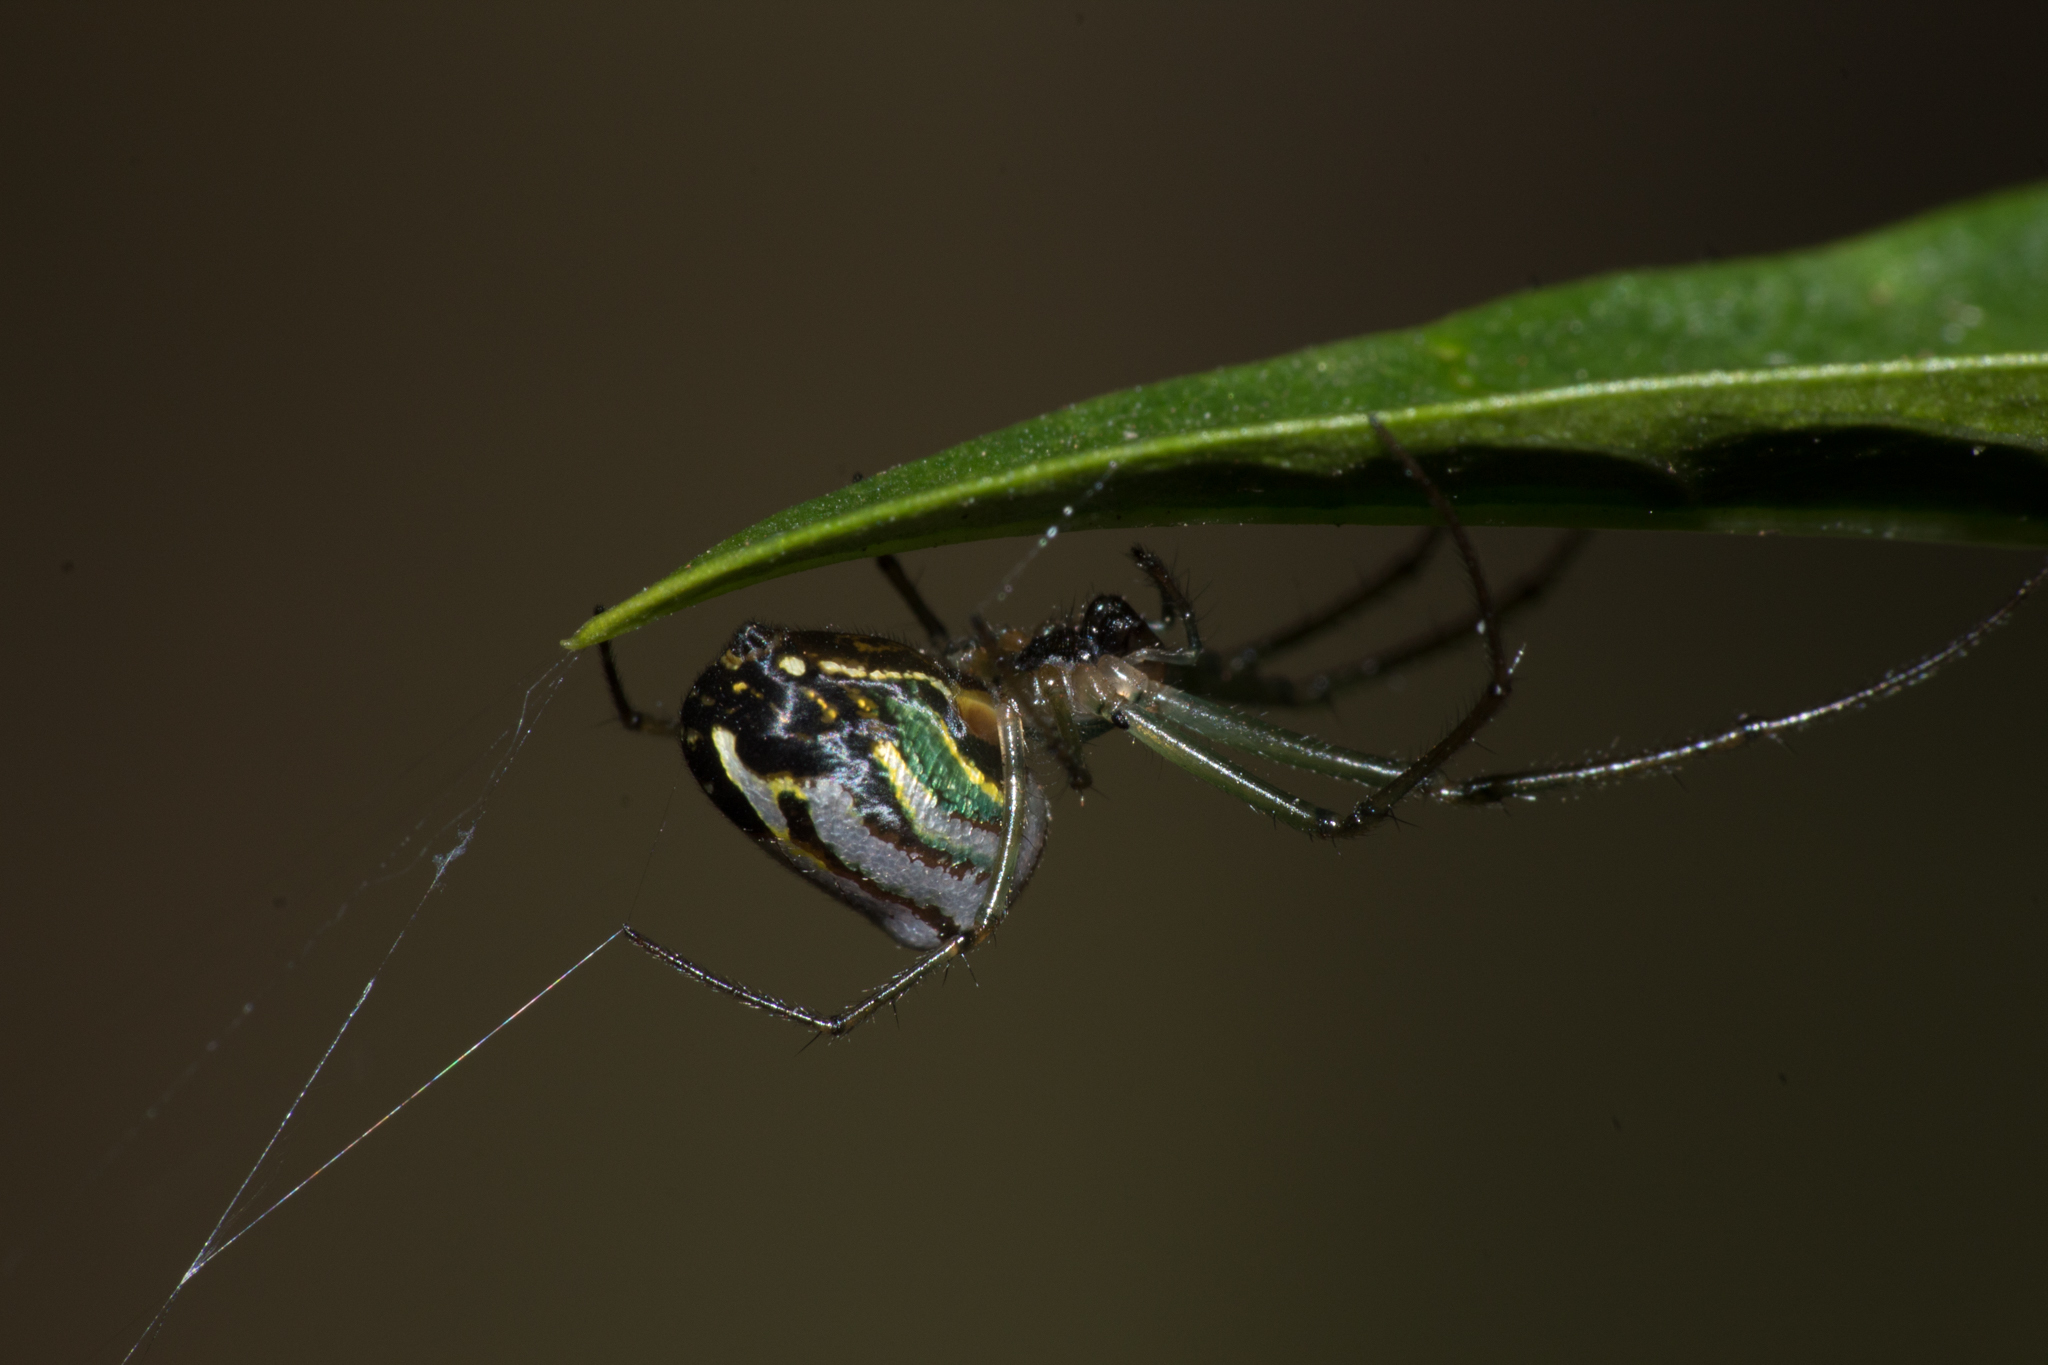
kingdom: Animalia
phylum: Arthropoda
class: Arachnida
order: Araneae
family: Tetragnathidae
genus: Leucauge
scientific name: Leucauge volupis
